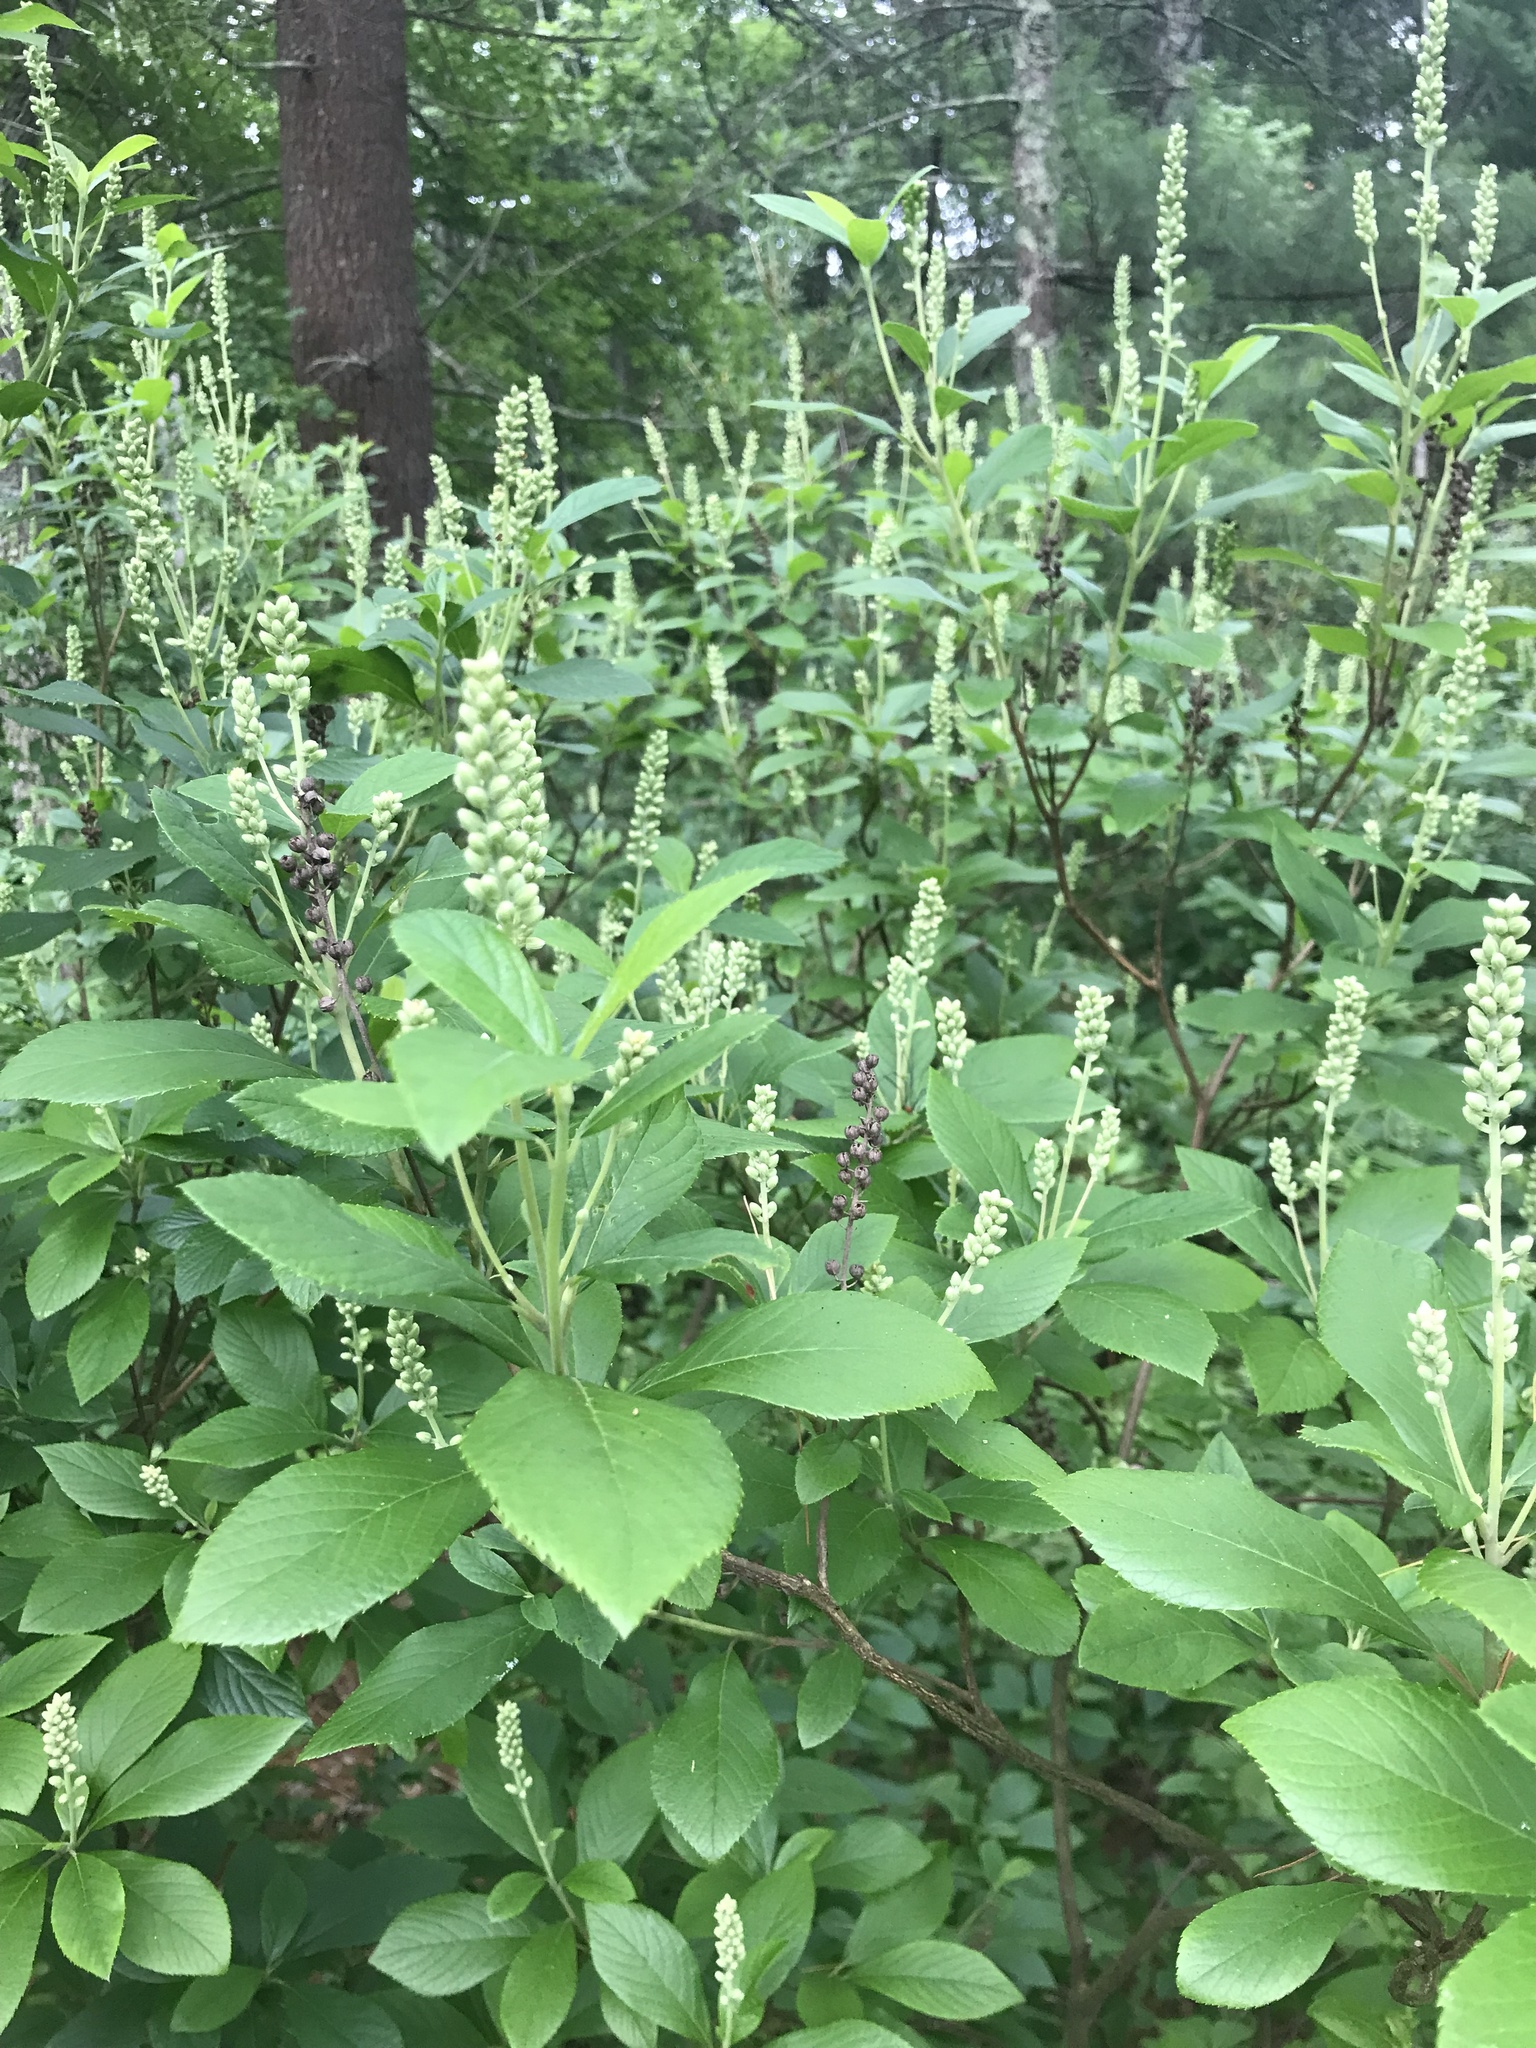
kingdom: Plantae
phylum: Tracheophyta
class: Magnoliopsida
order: Ericales
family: Clethraceae
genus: Clethra
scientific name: Clethra alnifolia
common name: Sweet pepperbush
